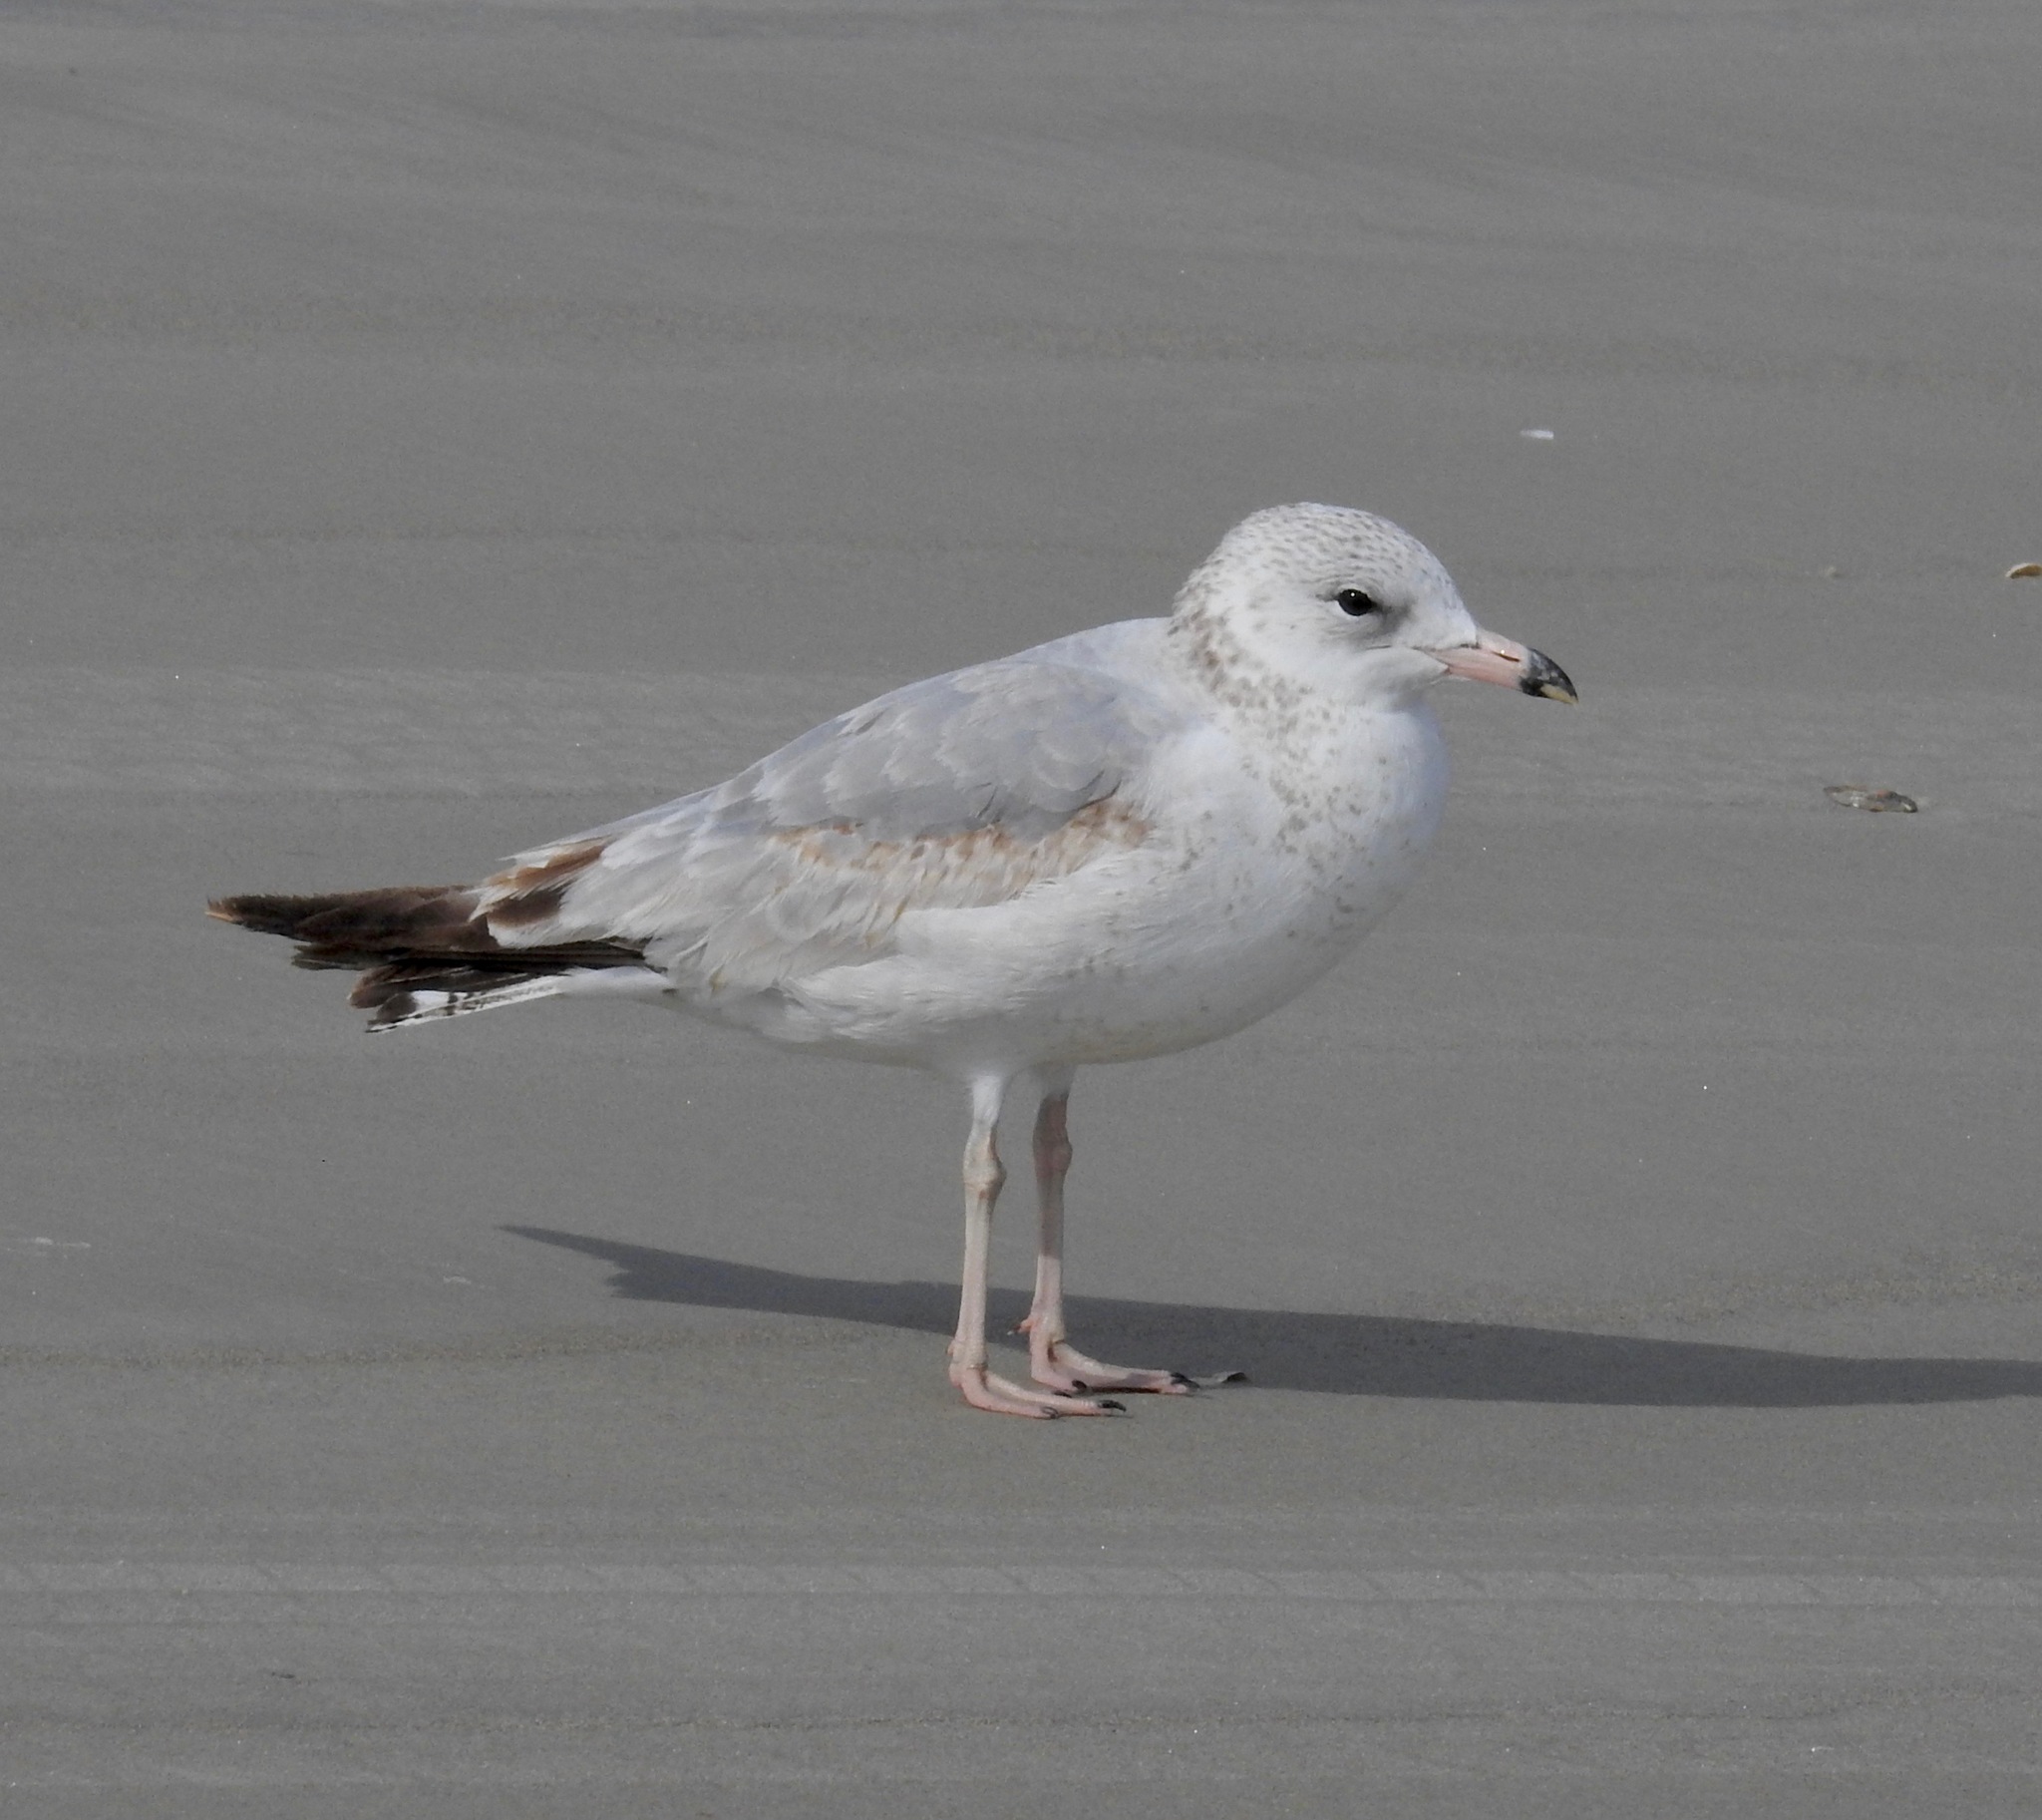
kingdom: Animalia
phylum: Chordata
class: Aves
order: Charadriiformes
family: Laridae
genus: Larus
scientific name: Larus delawarensis
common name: Ring-billed gull
